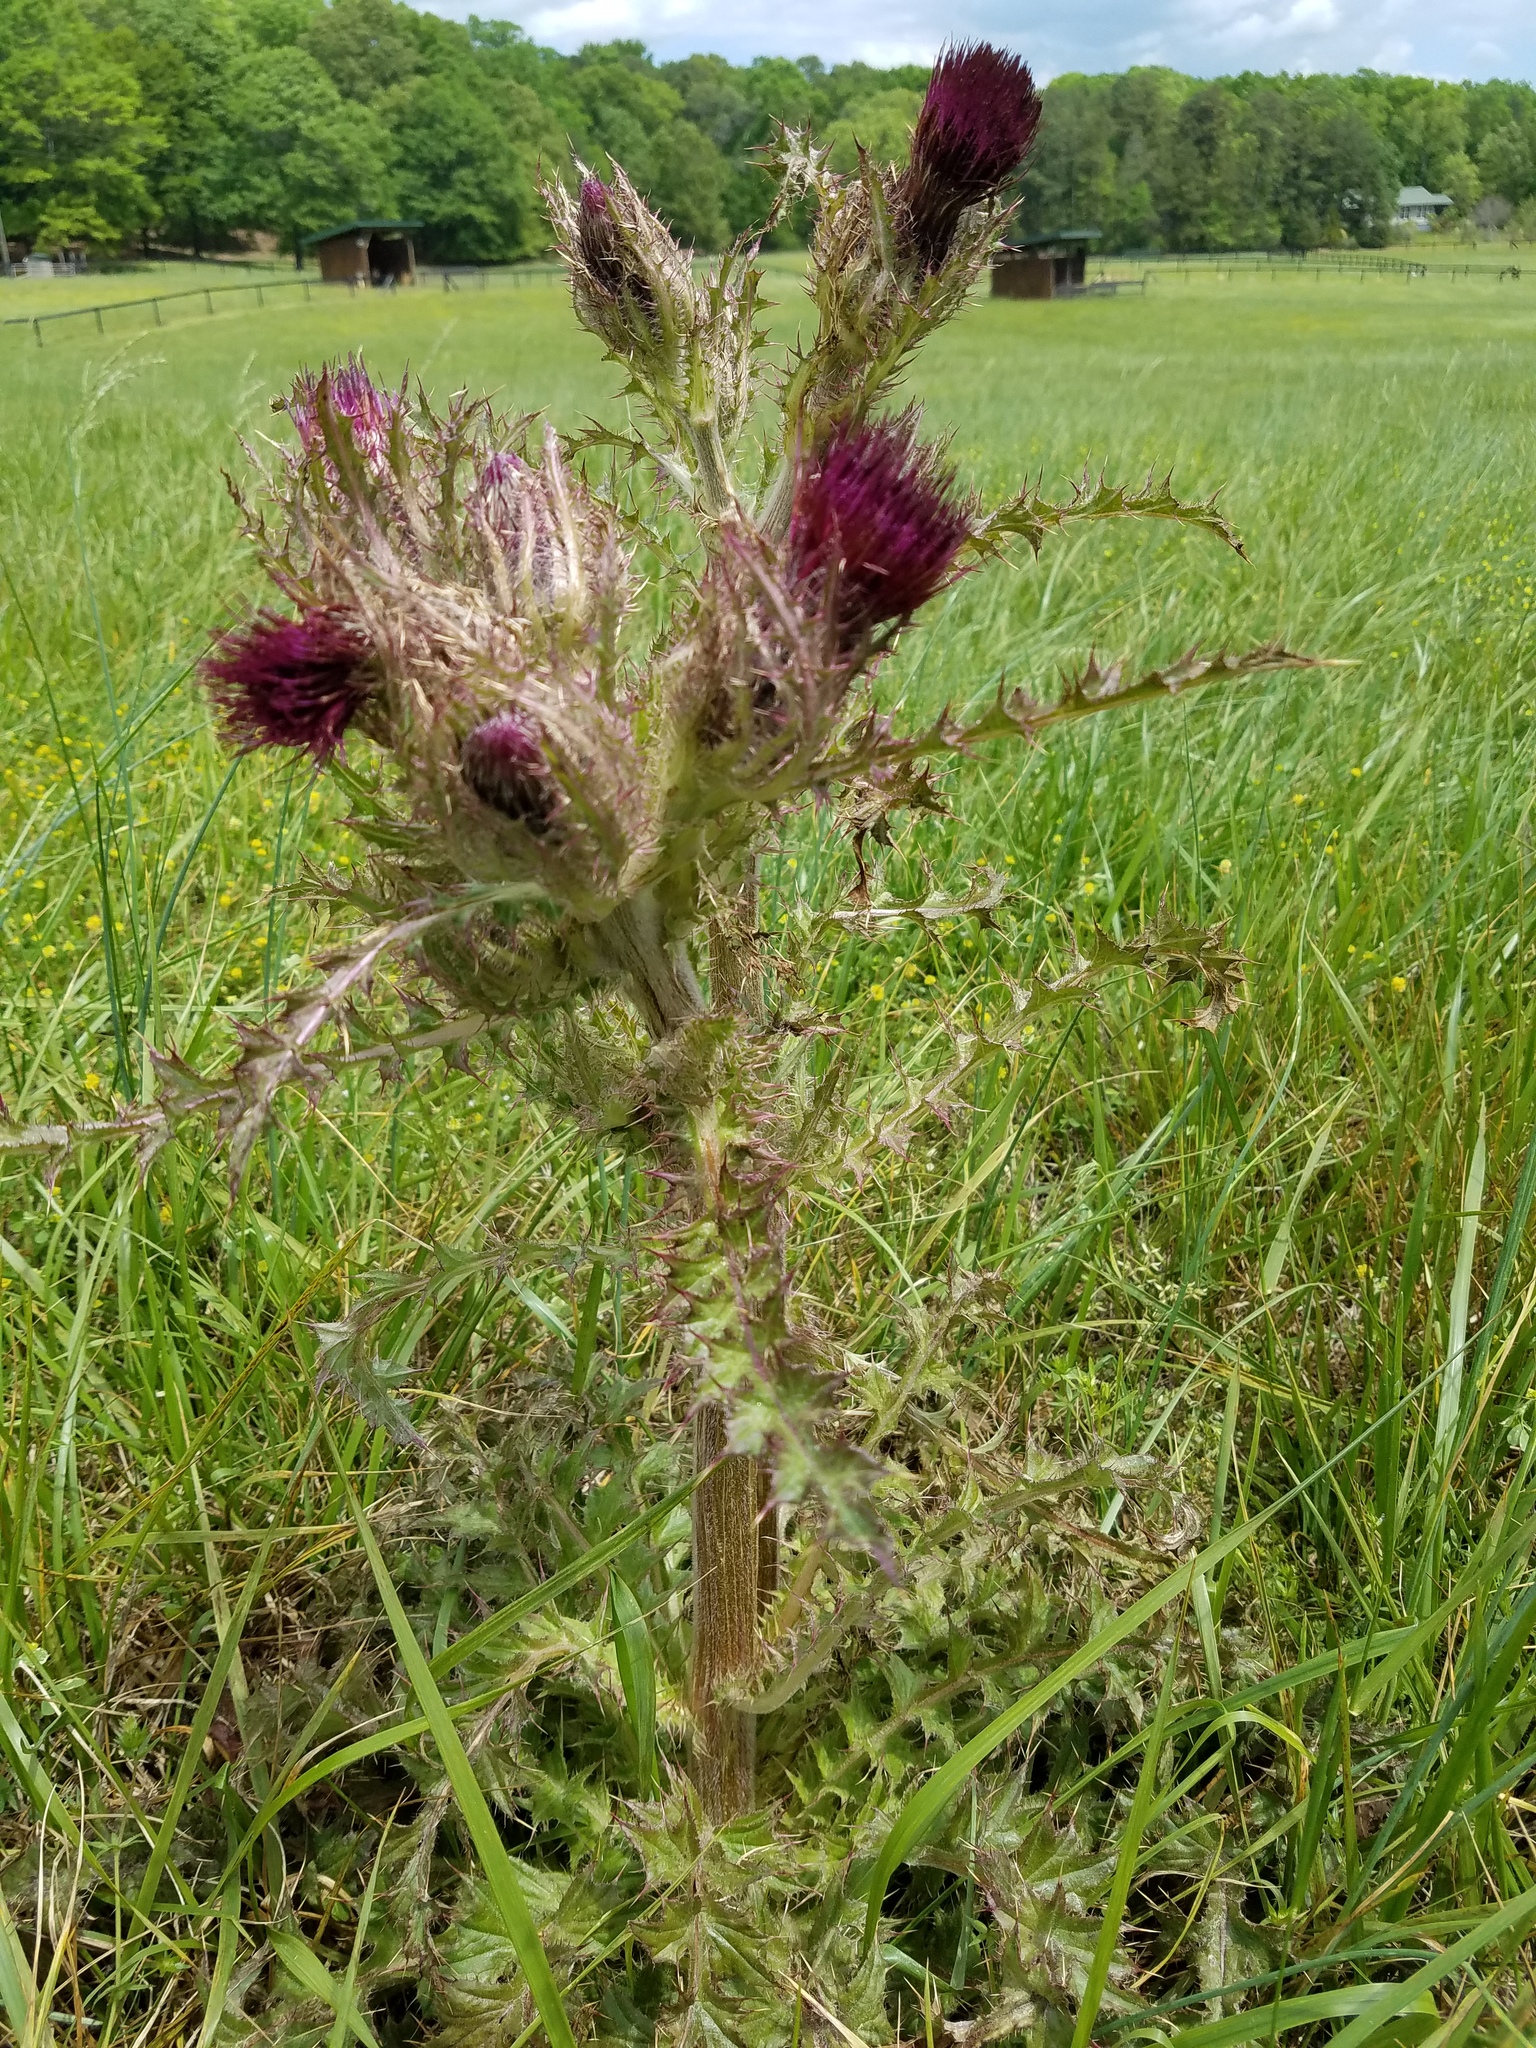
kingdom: Plantae
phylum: Tracheophyta
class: Magnoliopsida
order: Asterales
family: Asteraceae
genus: Cirsium
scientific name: Cirsium horridulum
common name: Bristly thistle
